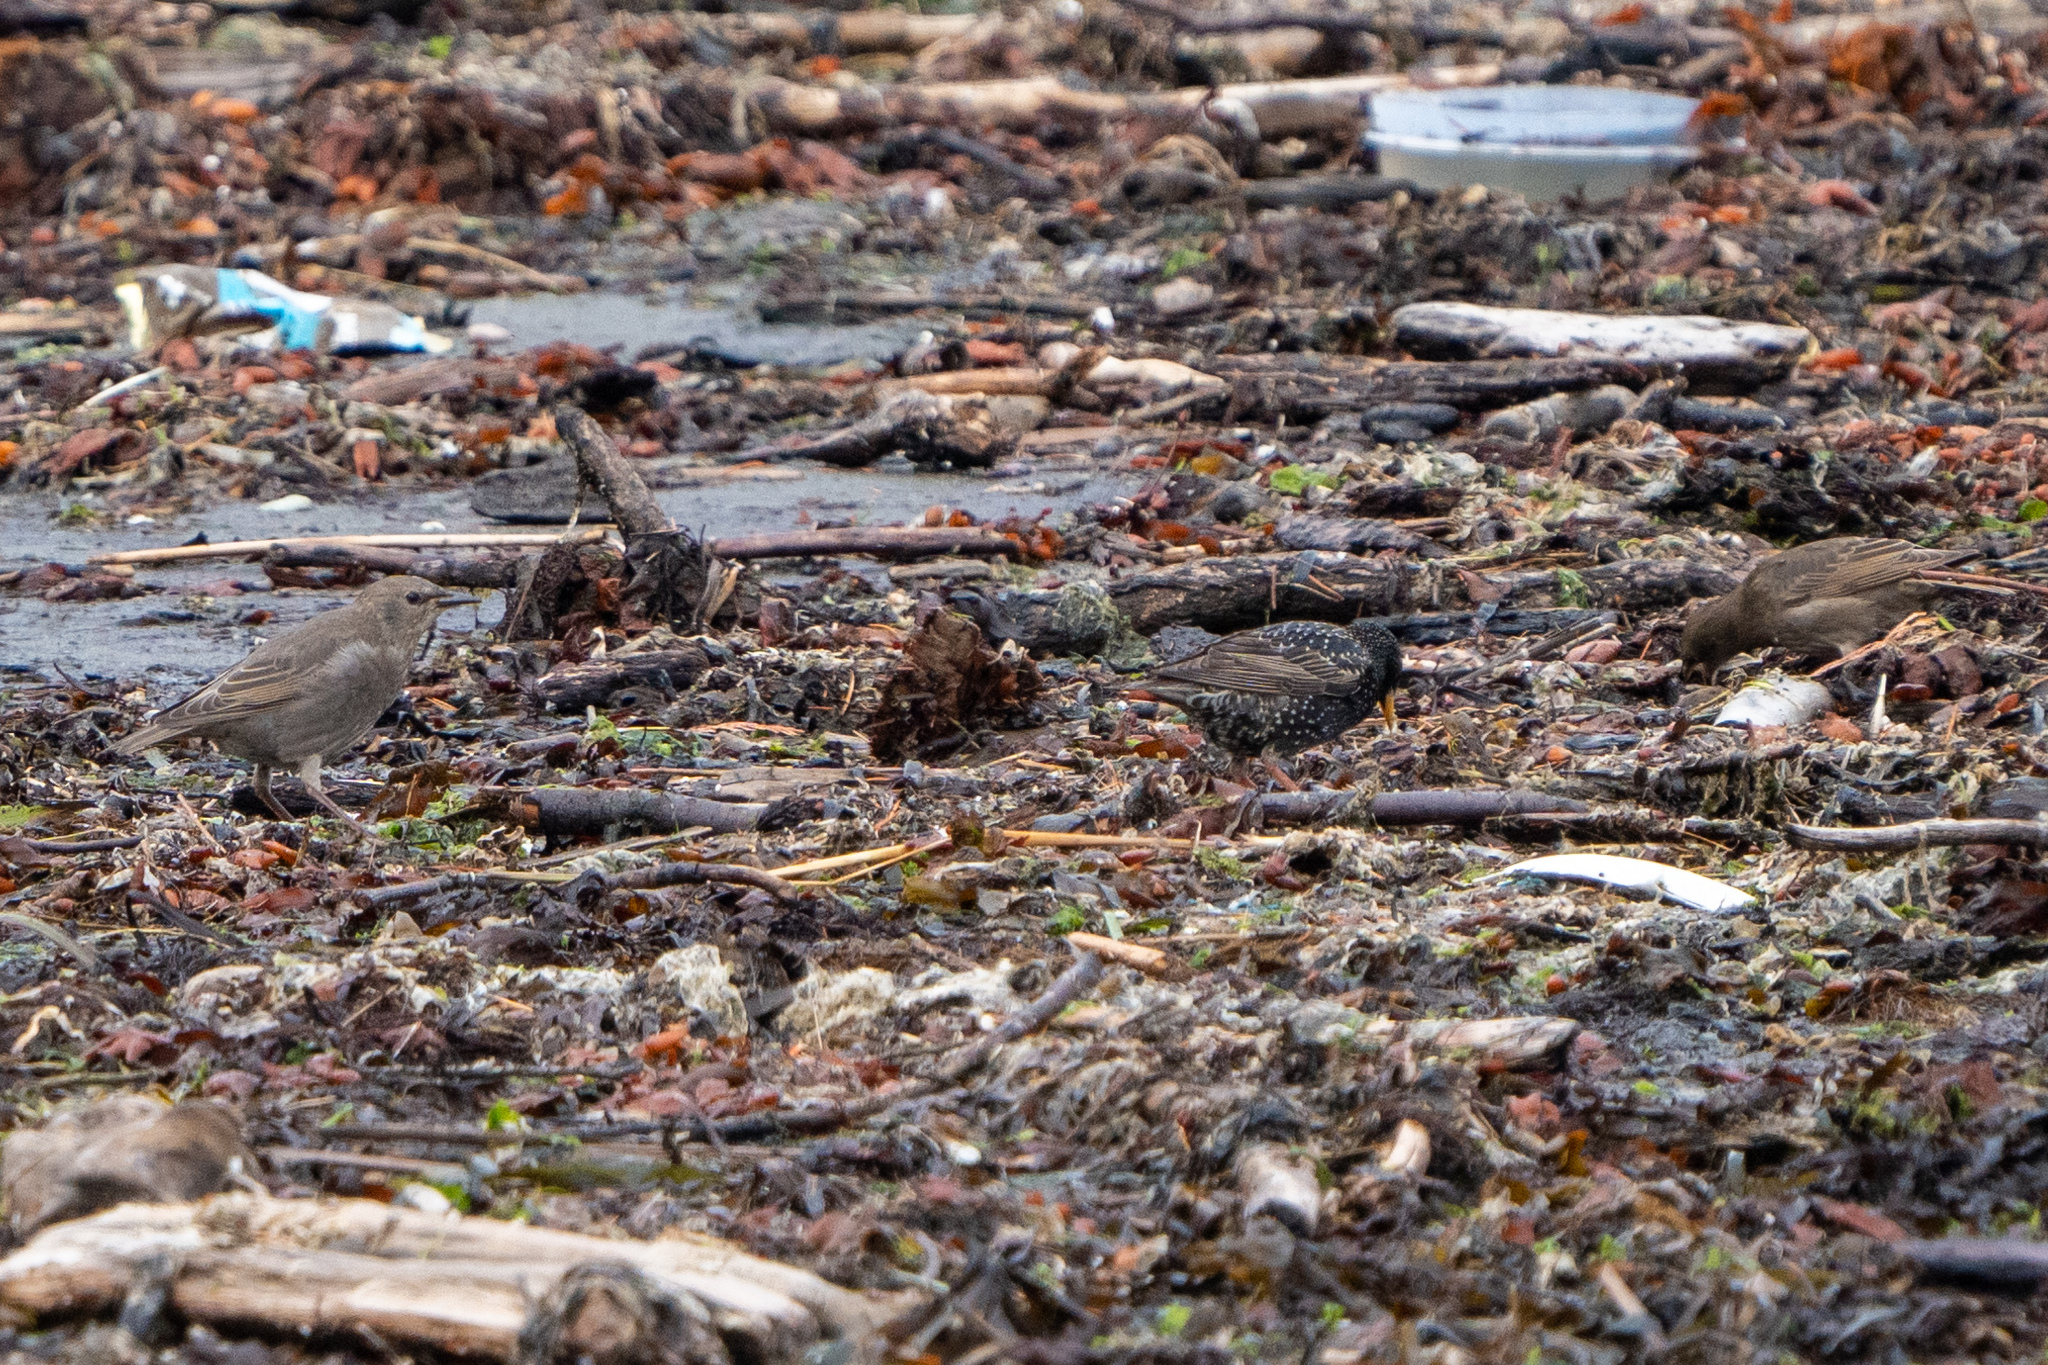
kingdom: Animalia
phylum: Chordata
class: Aves
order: Passeriformes
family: Sturnidae
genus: Sturnus
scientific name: Sturnus vulgaris
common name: Common starling
